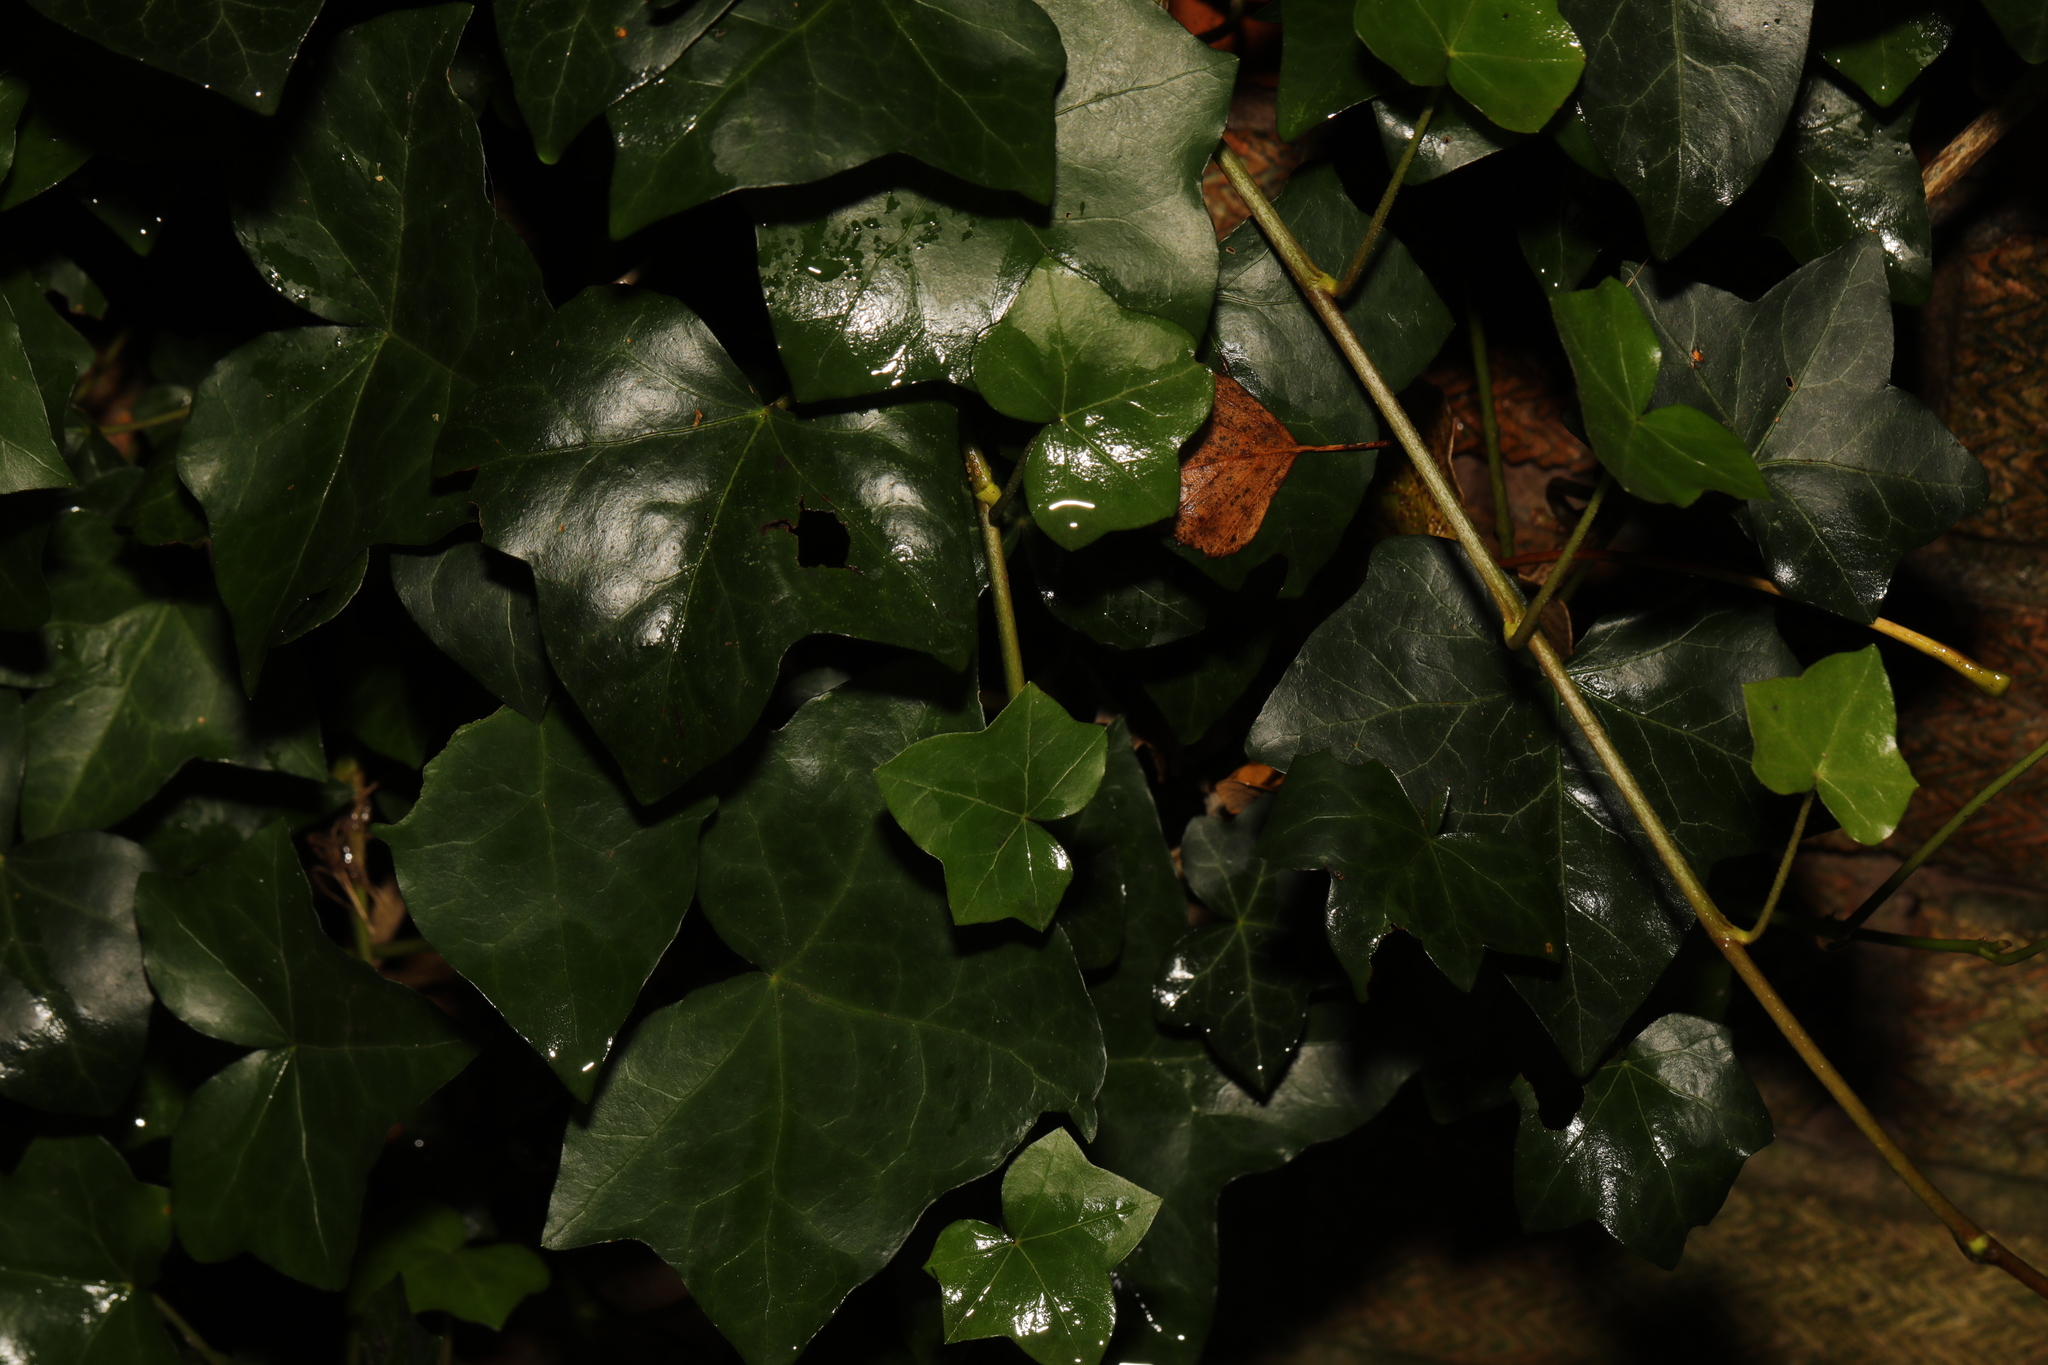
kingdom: Plantae
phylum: Tracheophyta
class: Magnoliopsida
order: Apiales
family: Araliaceae
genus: Hedera
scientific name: Hedera helix
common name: Ivy
